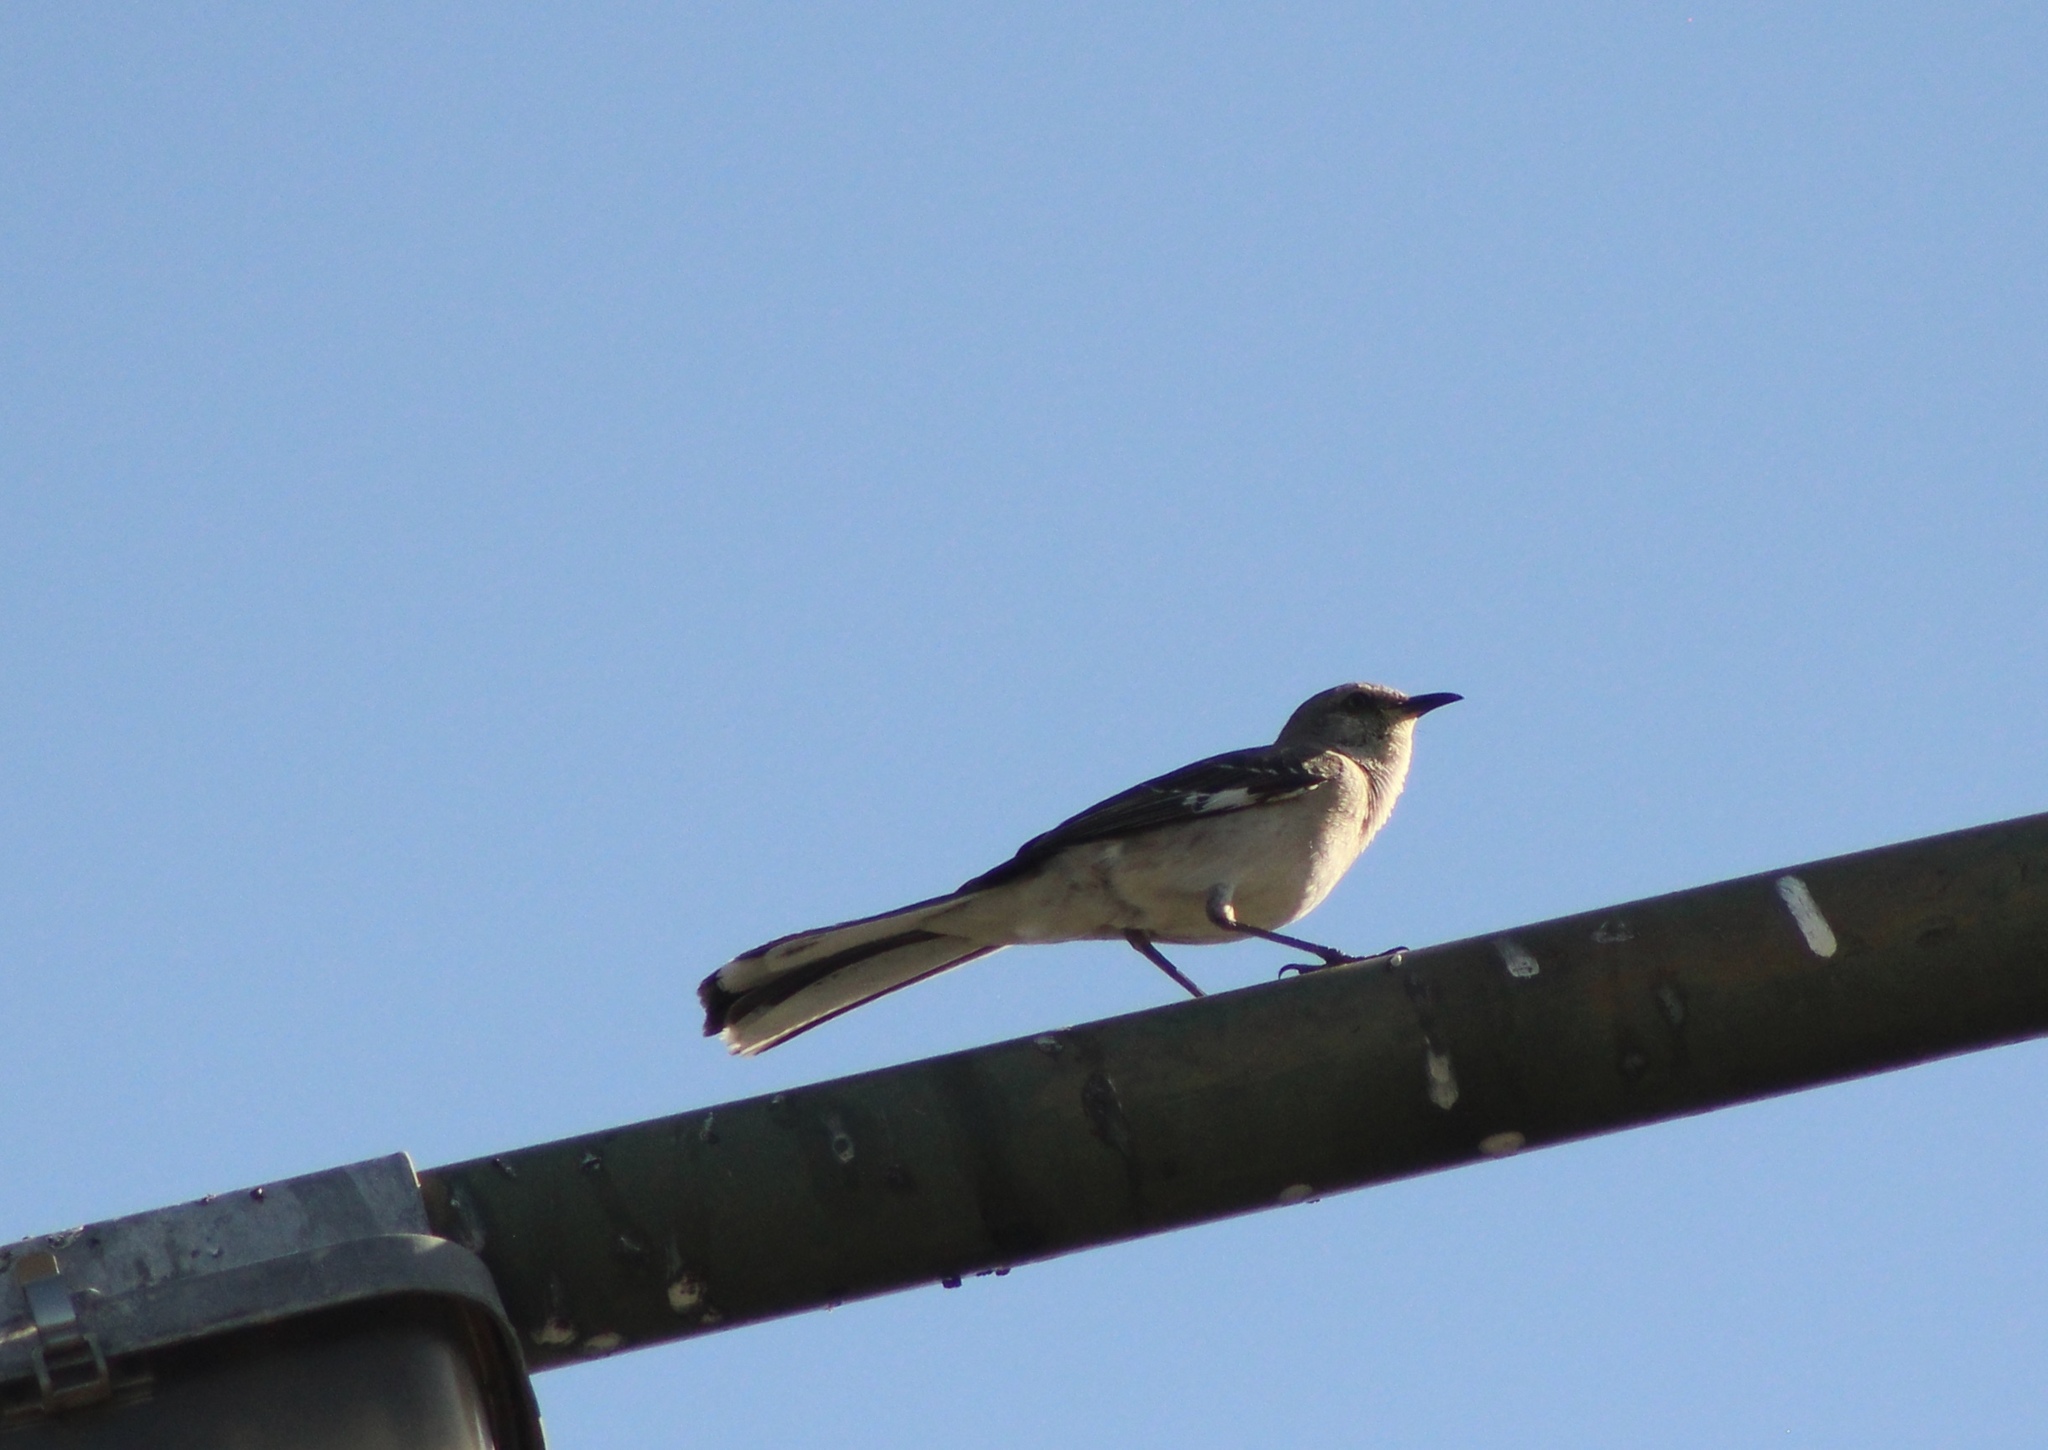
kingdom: Animalia
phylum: Chordata
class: Aves
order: Passeriformes
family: Mimidae
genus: Mimus
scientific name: Mimus polyglottos
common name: Northern mockingbird
